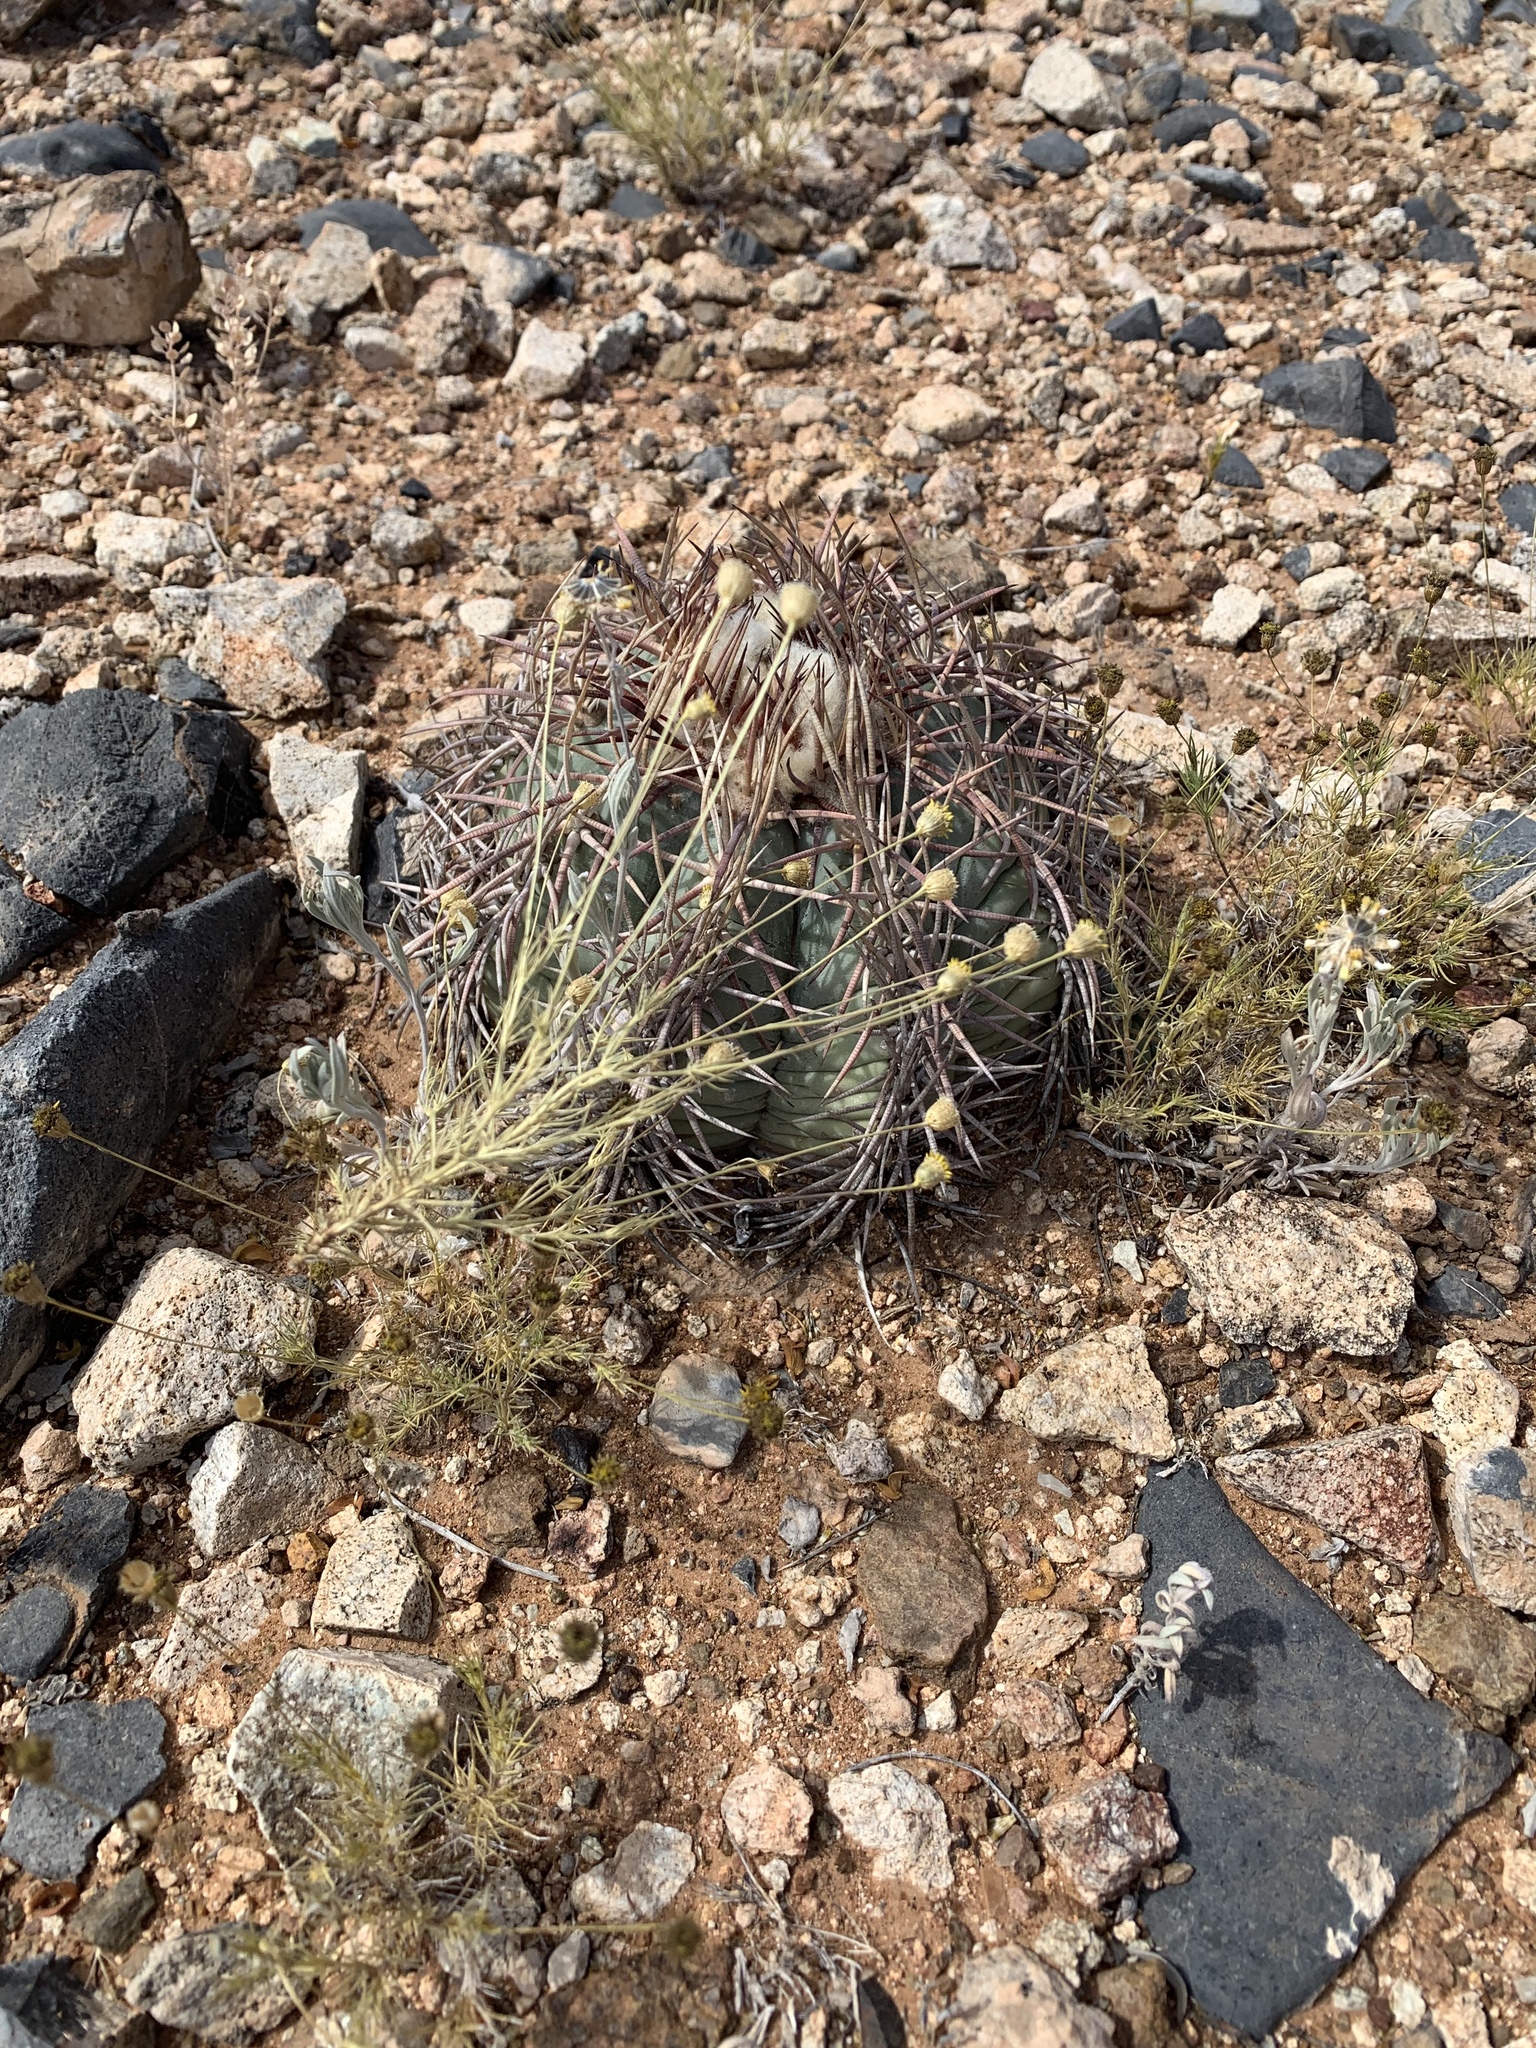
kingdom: Plantae
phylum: Tracheophyta
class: Magnoliopsida
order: Caryophyllales
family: Cactaceae
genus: Echinocactus
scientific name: Echinocactus horizonthalonius
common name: Devilshead
